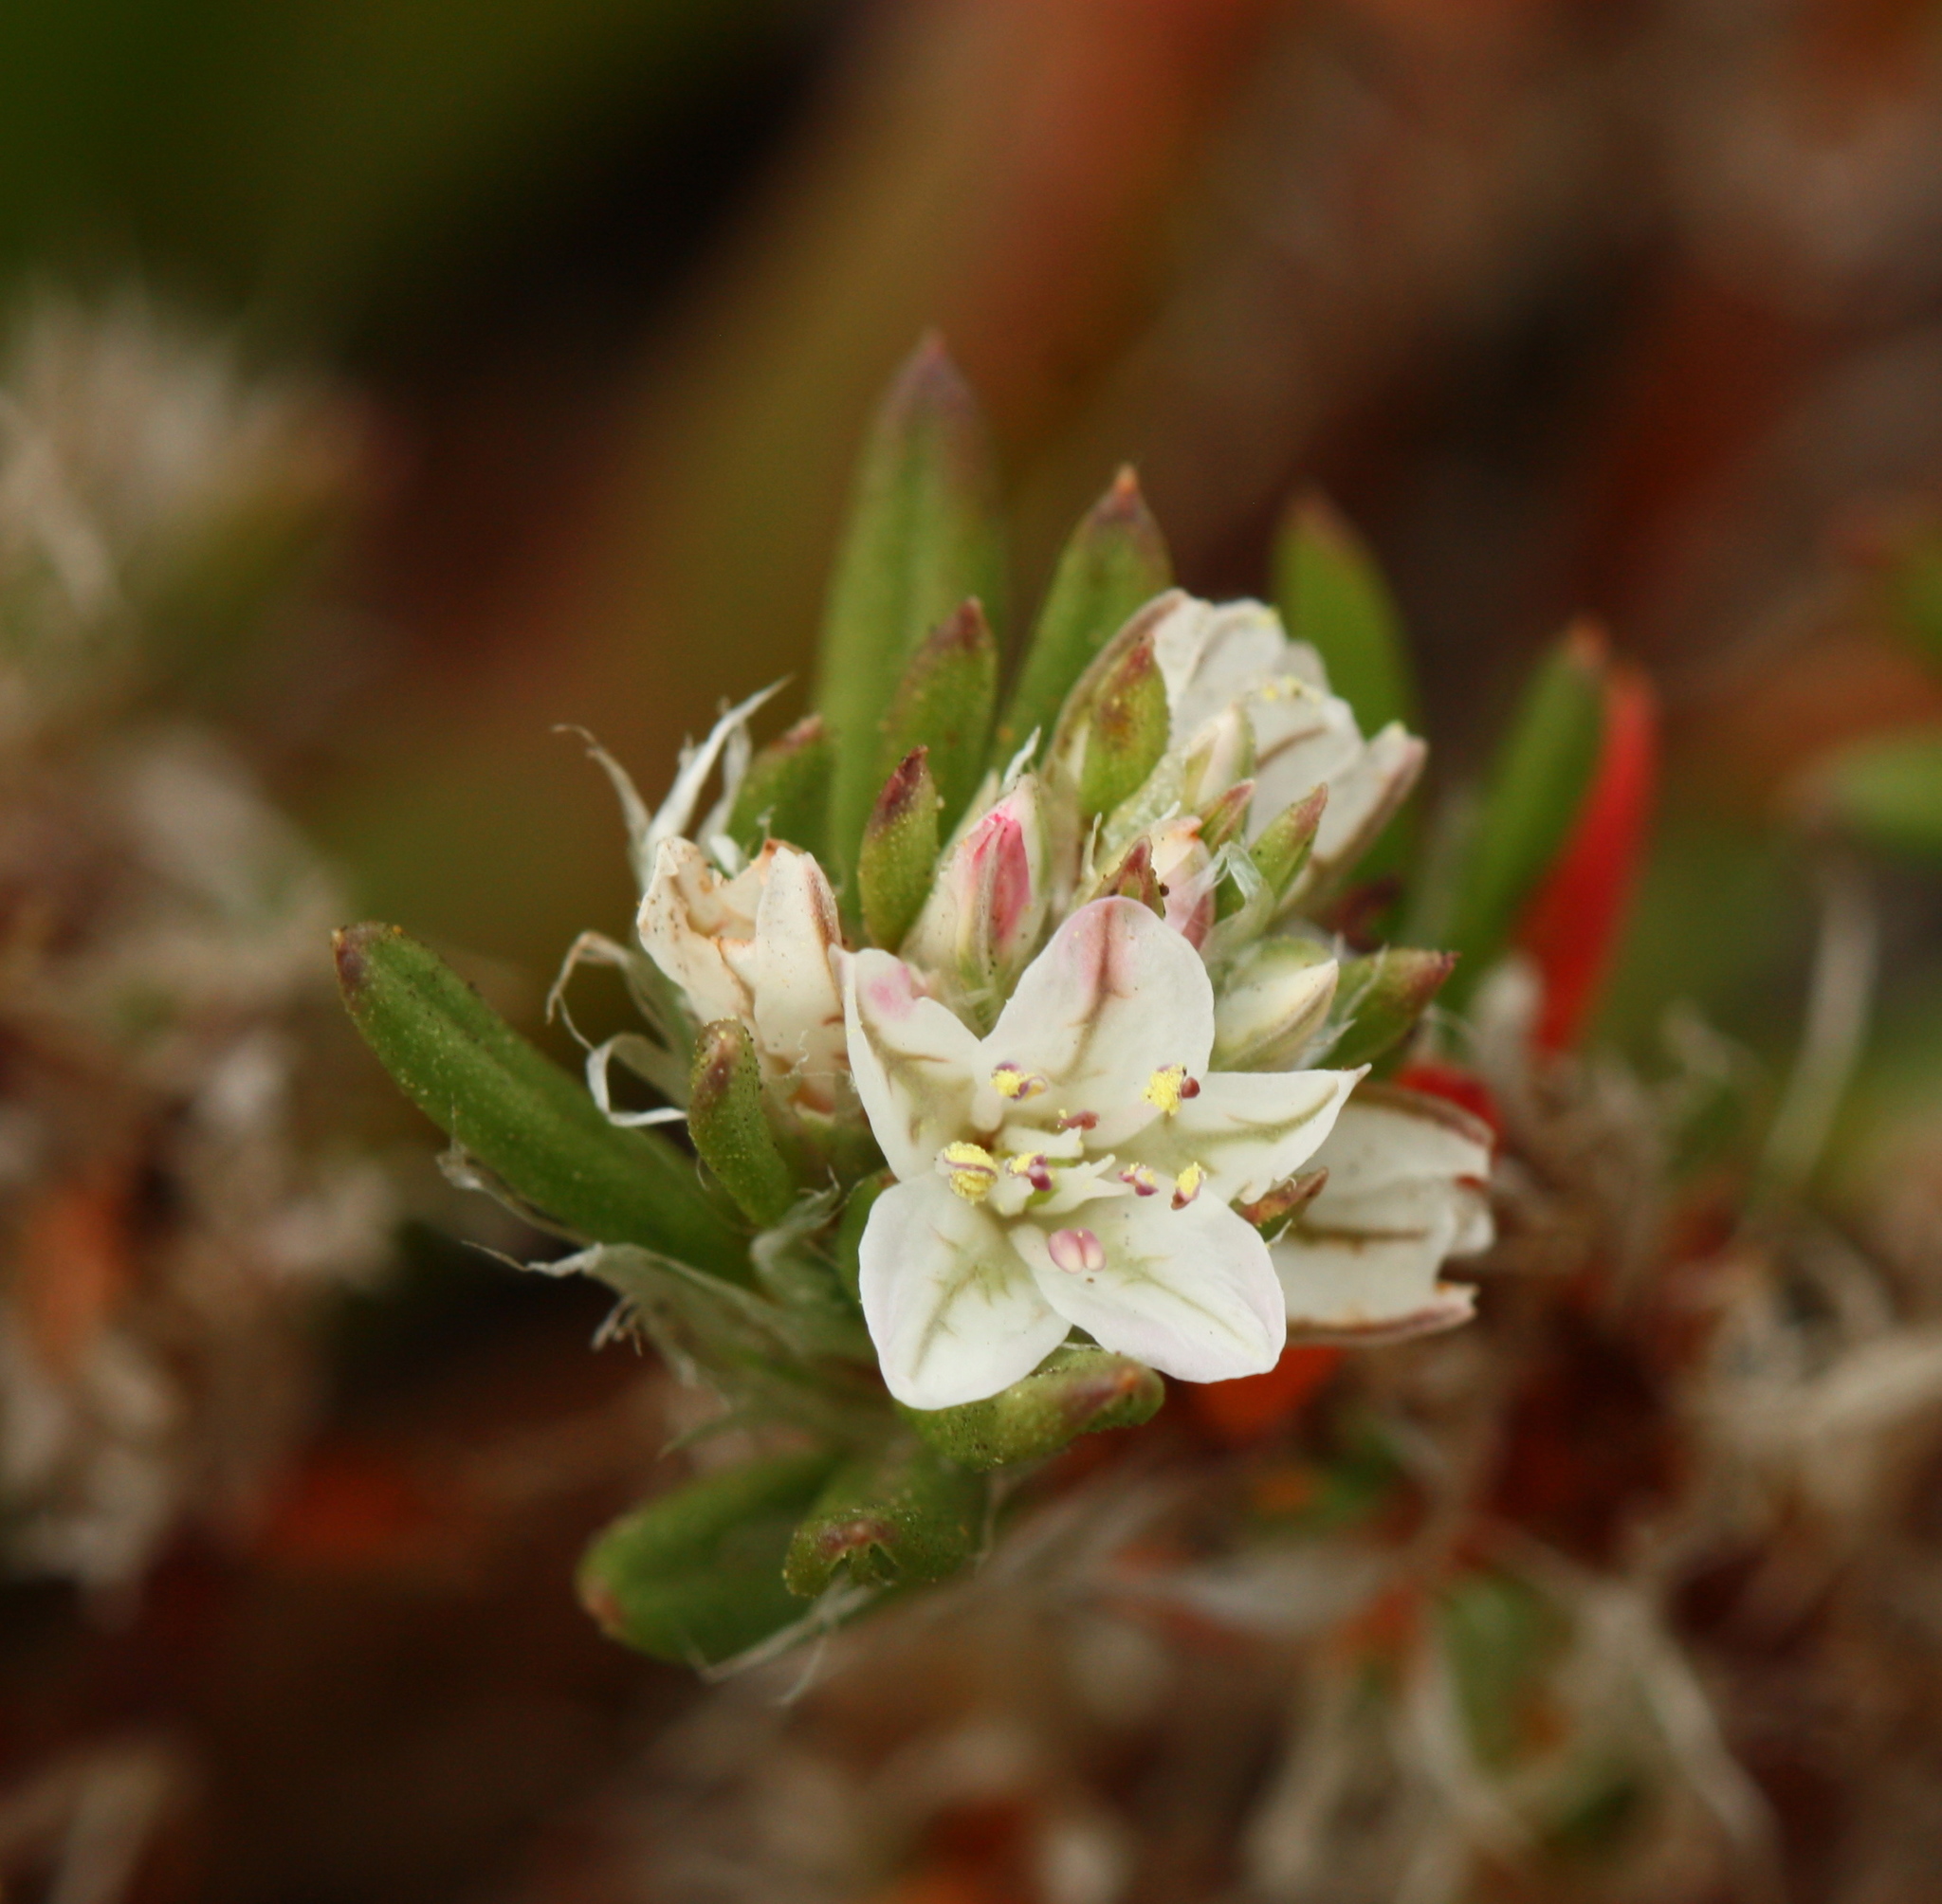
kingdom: Plantae
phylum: Tracheophyta
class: Magnoliopsida
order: Caryophyllales
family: Polygonaceae
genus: Polygonum
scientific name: Polygonum paronychia
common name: Dune knotweed
